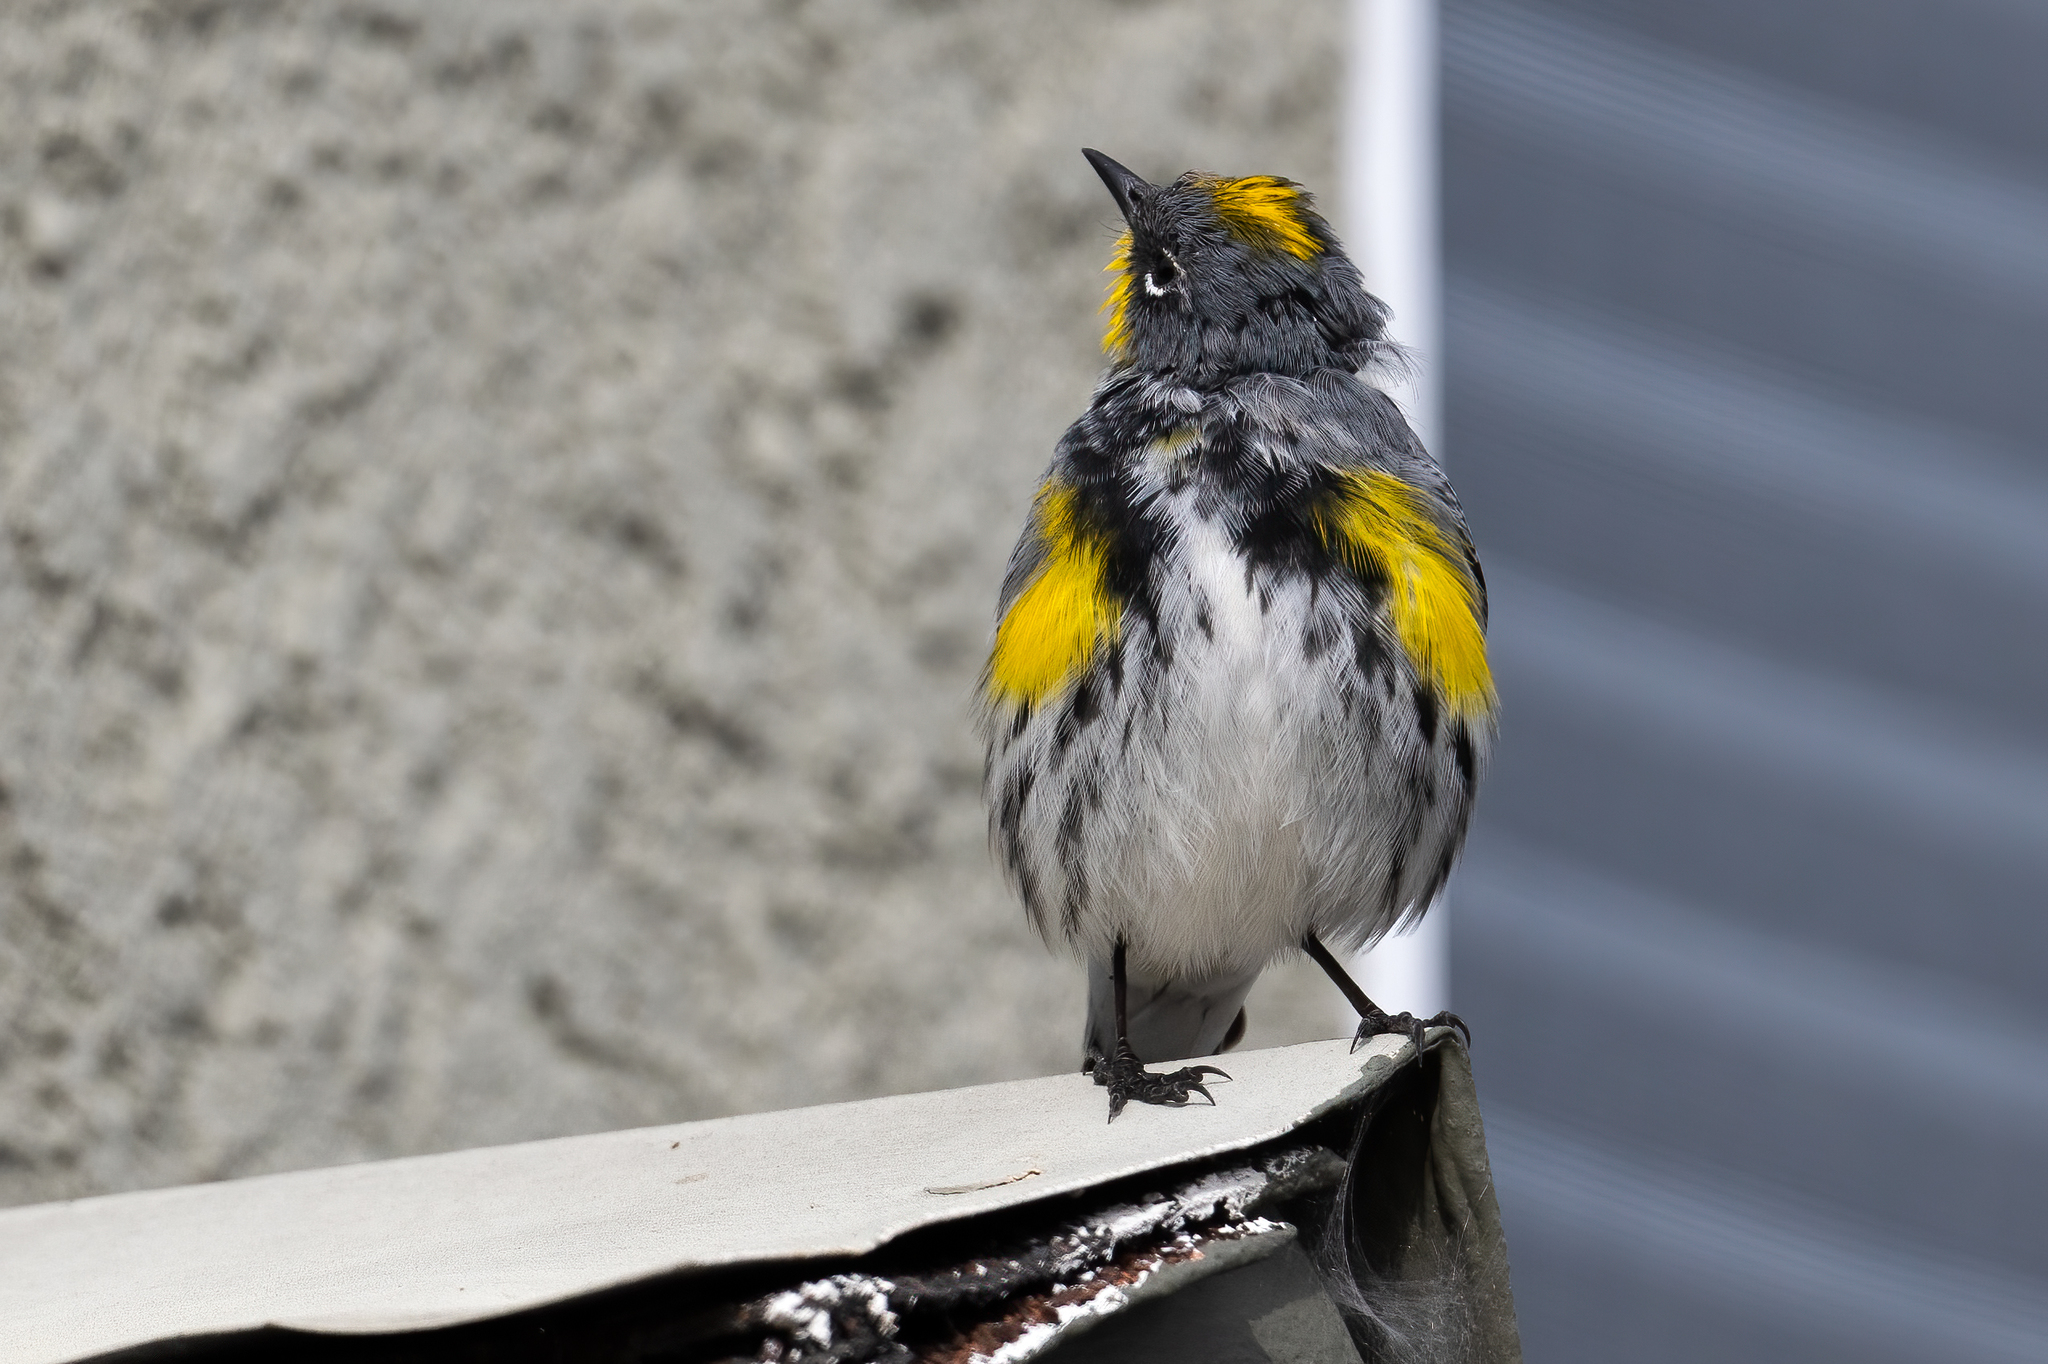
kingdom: Animalia
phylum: Chordata
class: Aves
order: Passeriformes
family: Parulidae
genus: Setophaga
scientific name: Setophaga auduboni
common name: Audubon's warbler
